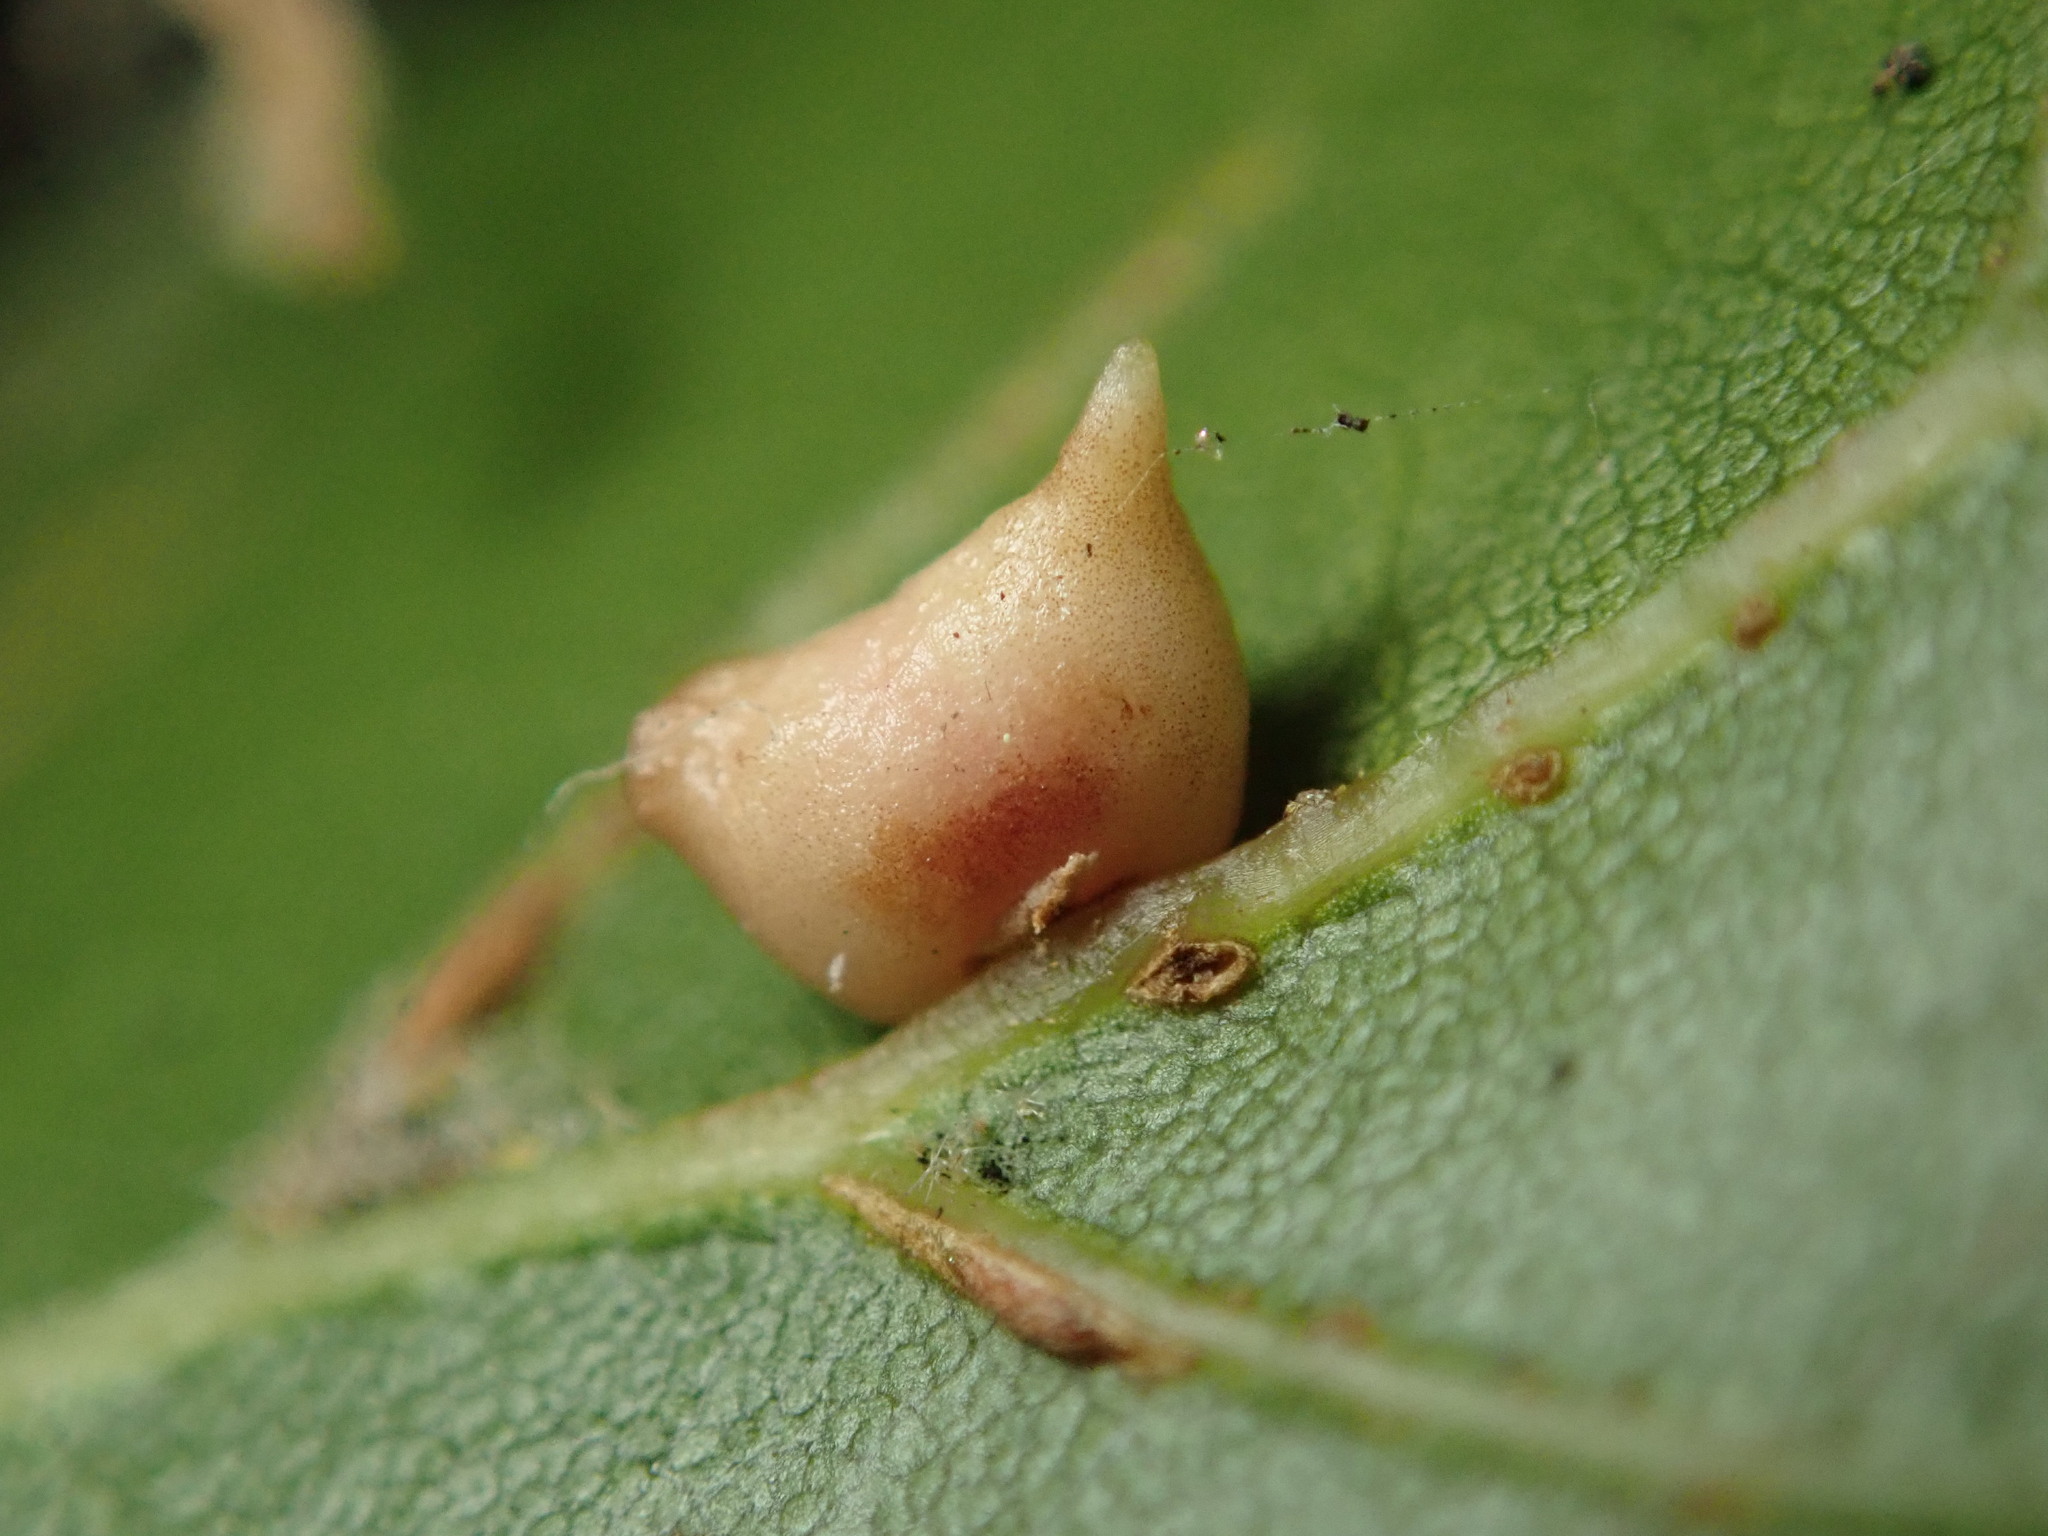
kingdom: Animalia
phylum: Arthropoda
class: Insecta
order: Hymenoptera
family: Cynipidae
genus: Dryocosmus
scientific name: Dryocosmus
